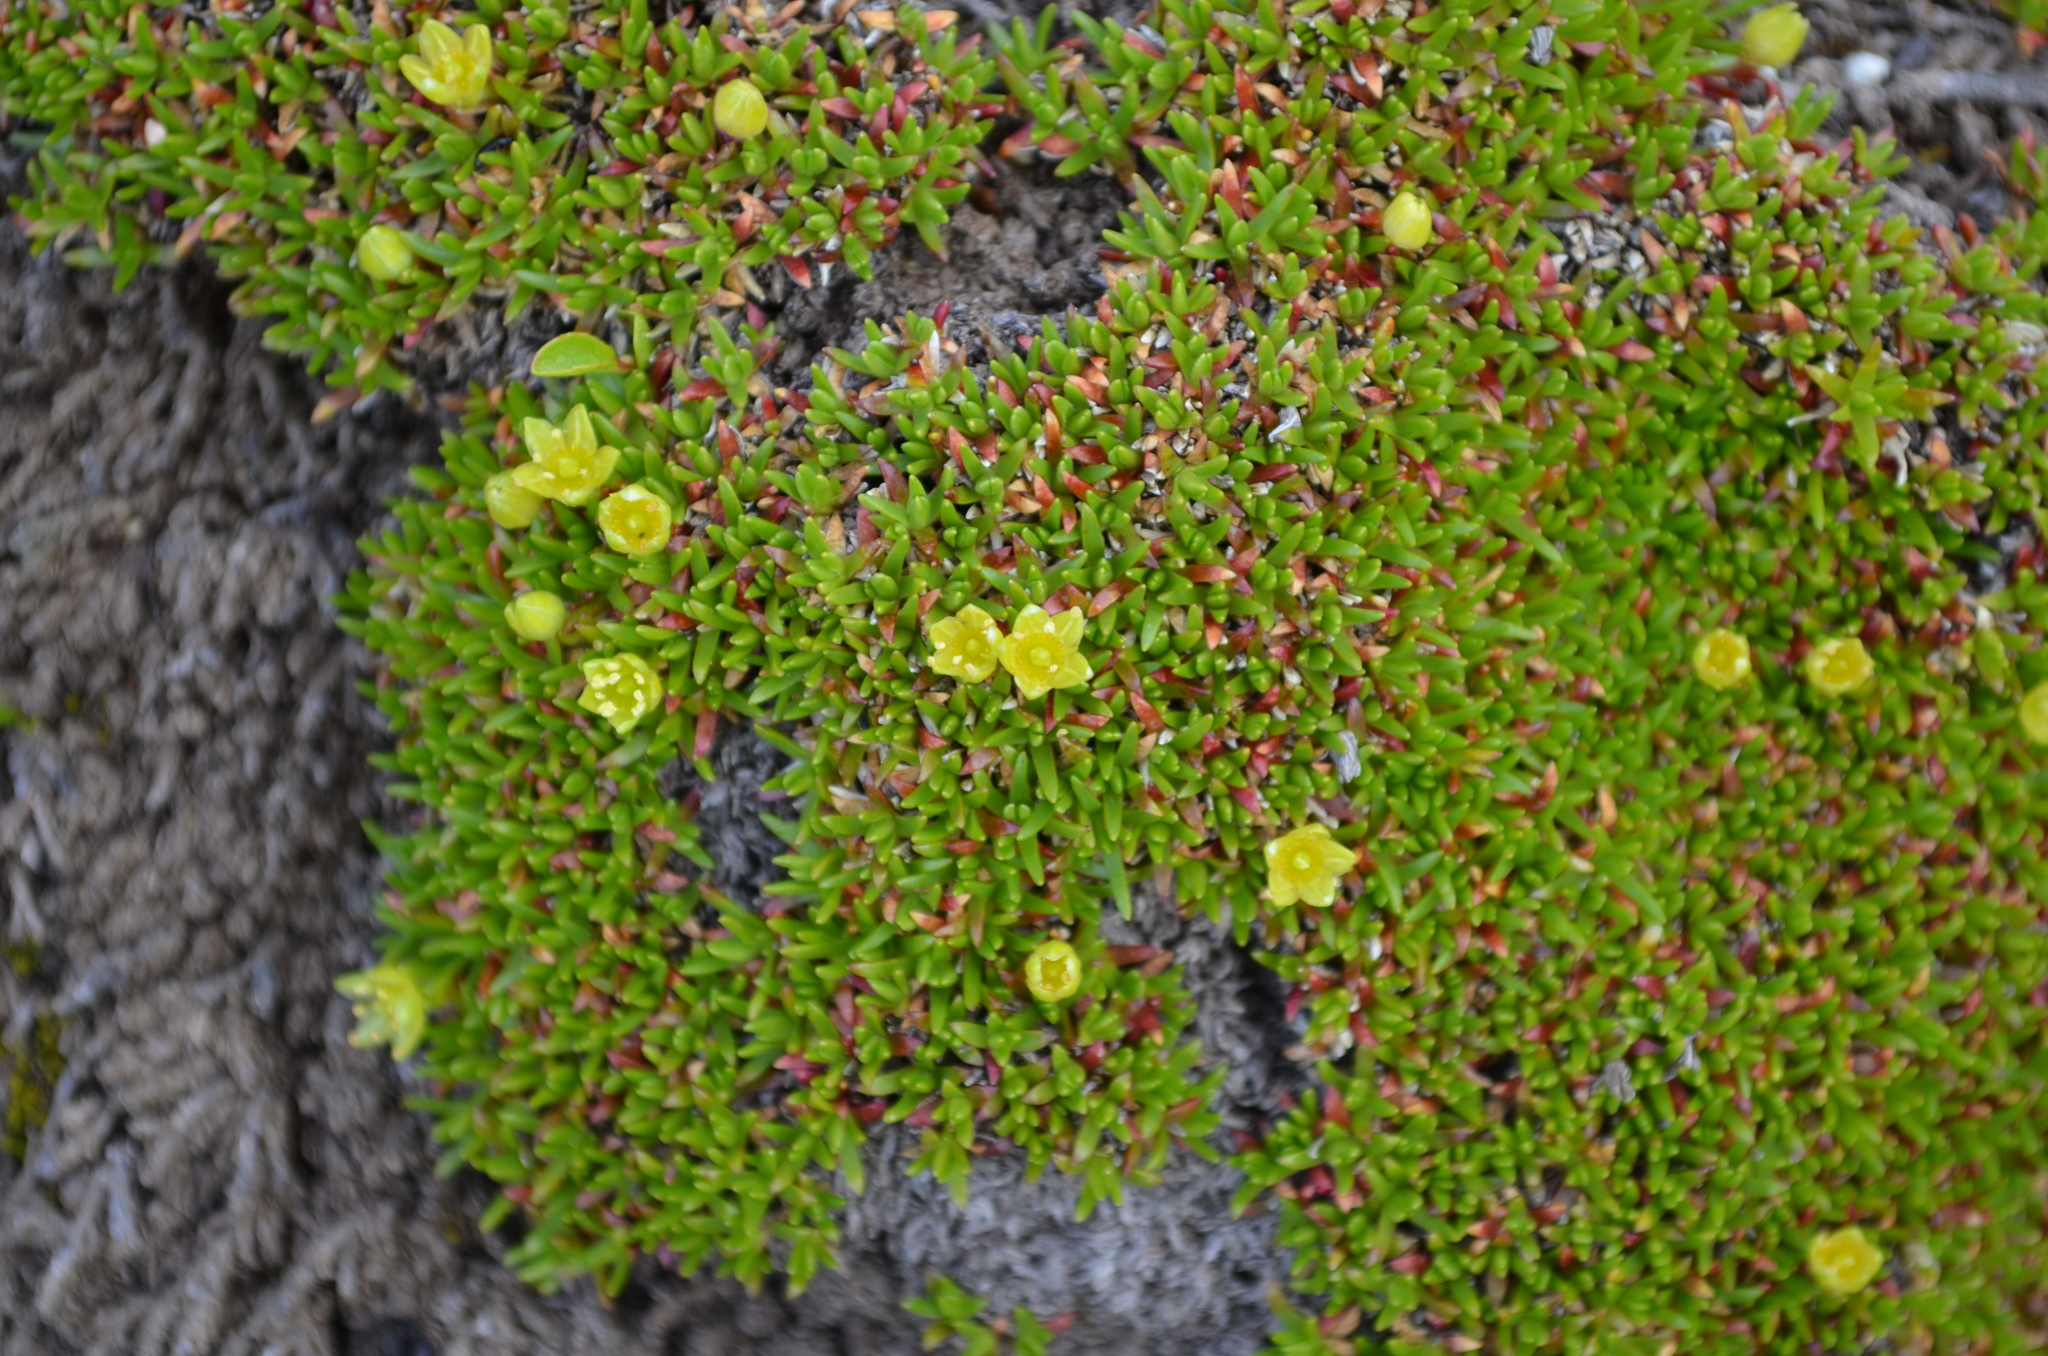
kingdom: Plantae
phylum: Tracheophyta
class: Magnoliopsida
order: Caryophyllales
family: Caryophyllaceae
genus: Cherleria
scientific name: Cherleria sedoides
